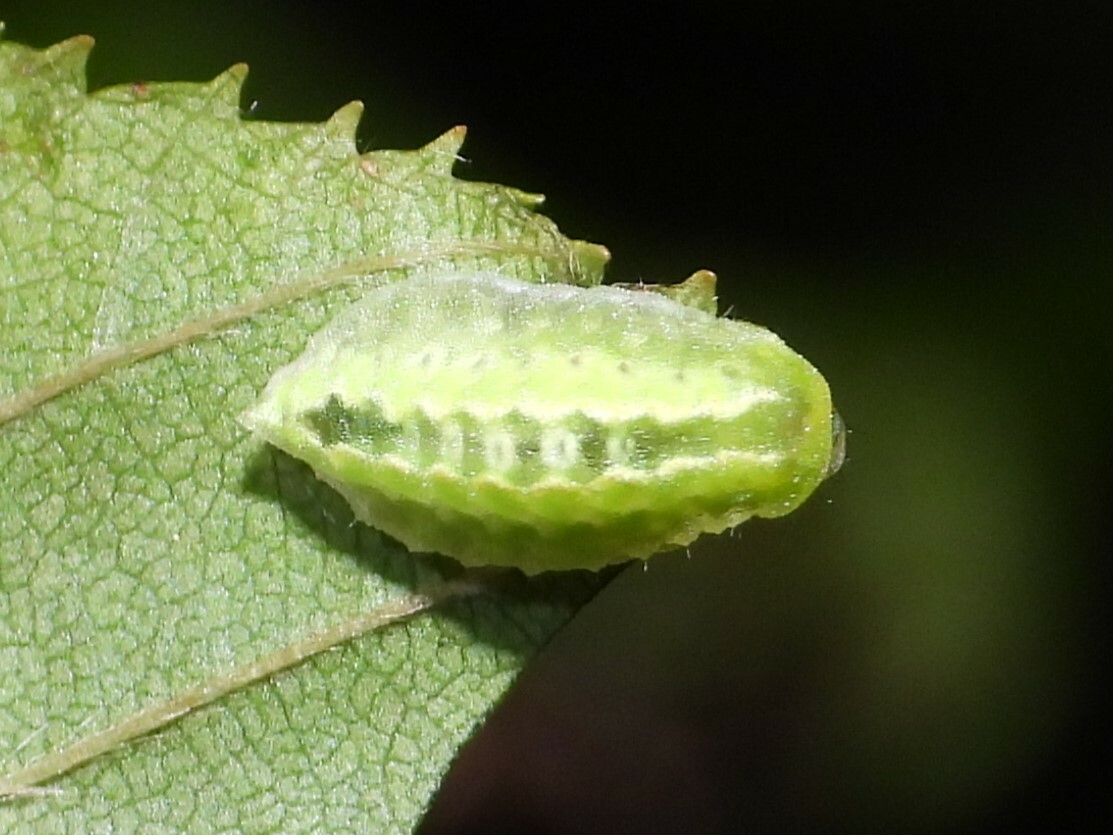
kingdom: Animalia
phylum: Arthropoda
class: Insecta
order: Lepidoptera
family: Limacodidae
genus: Packardia
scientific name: Packardia elegans
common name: Elegant tailed slug moth
